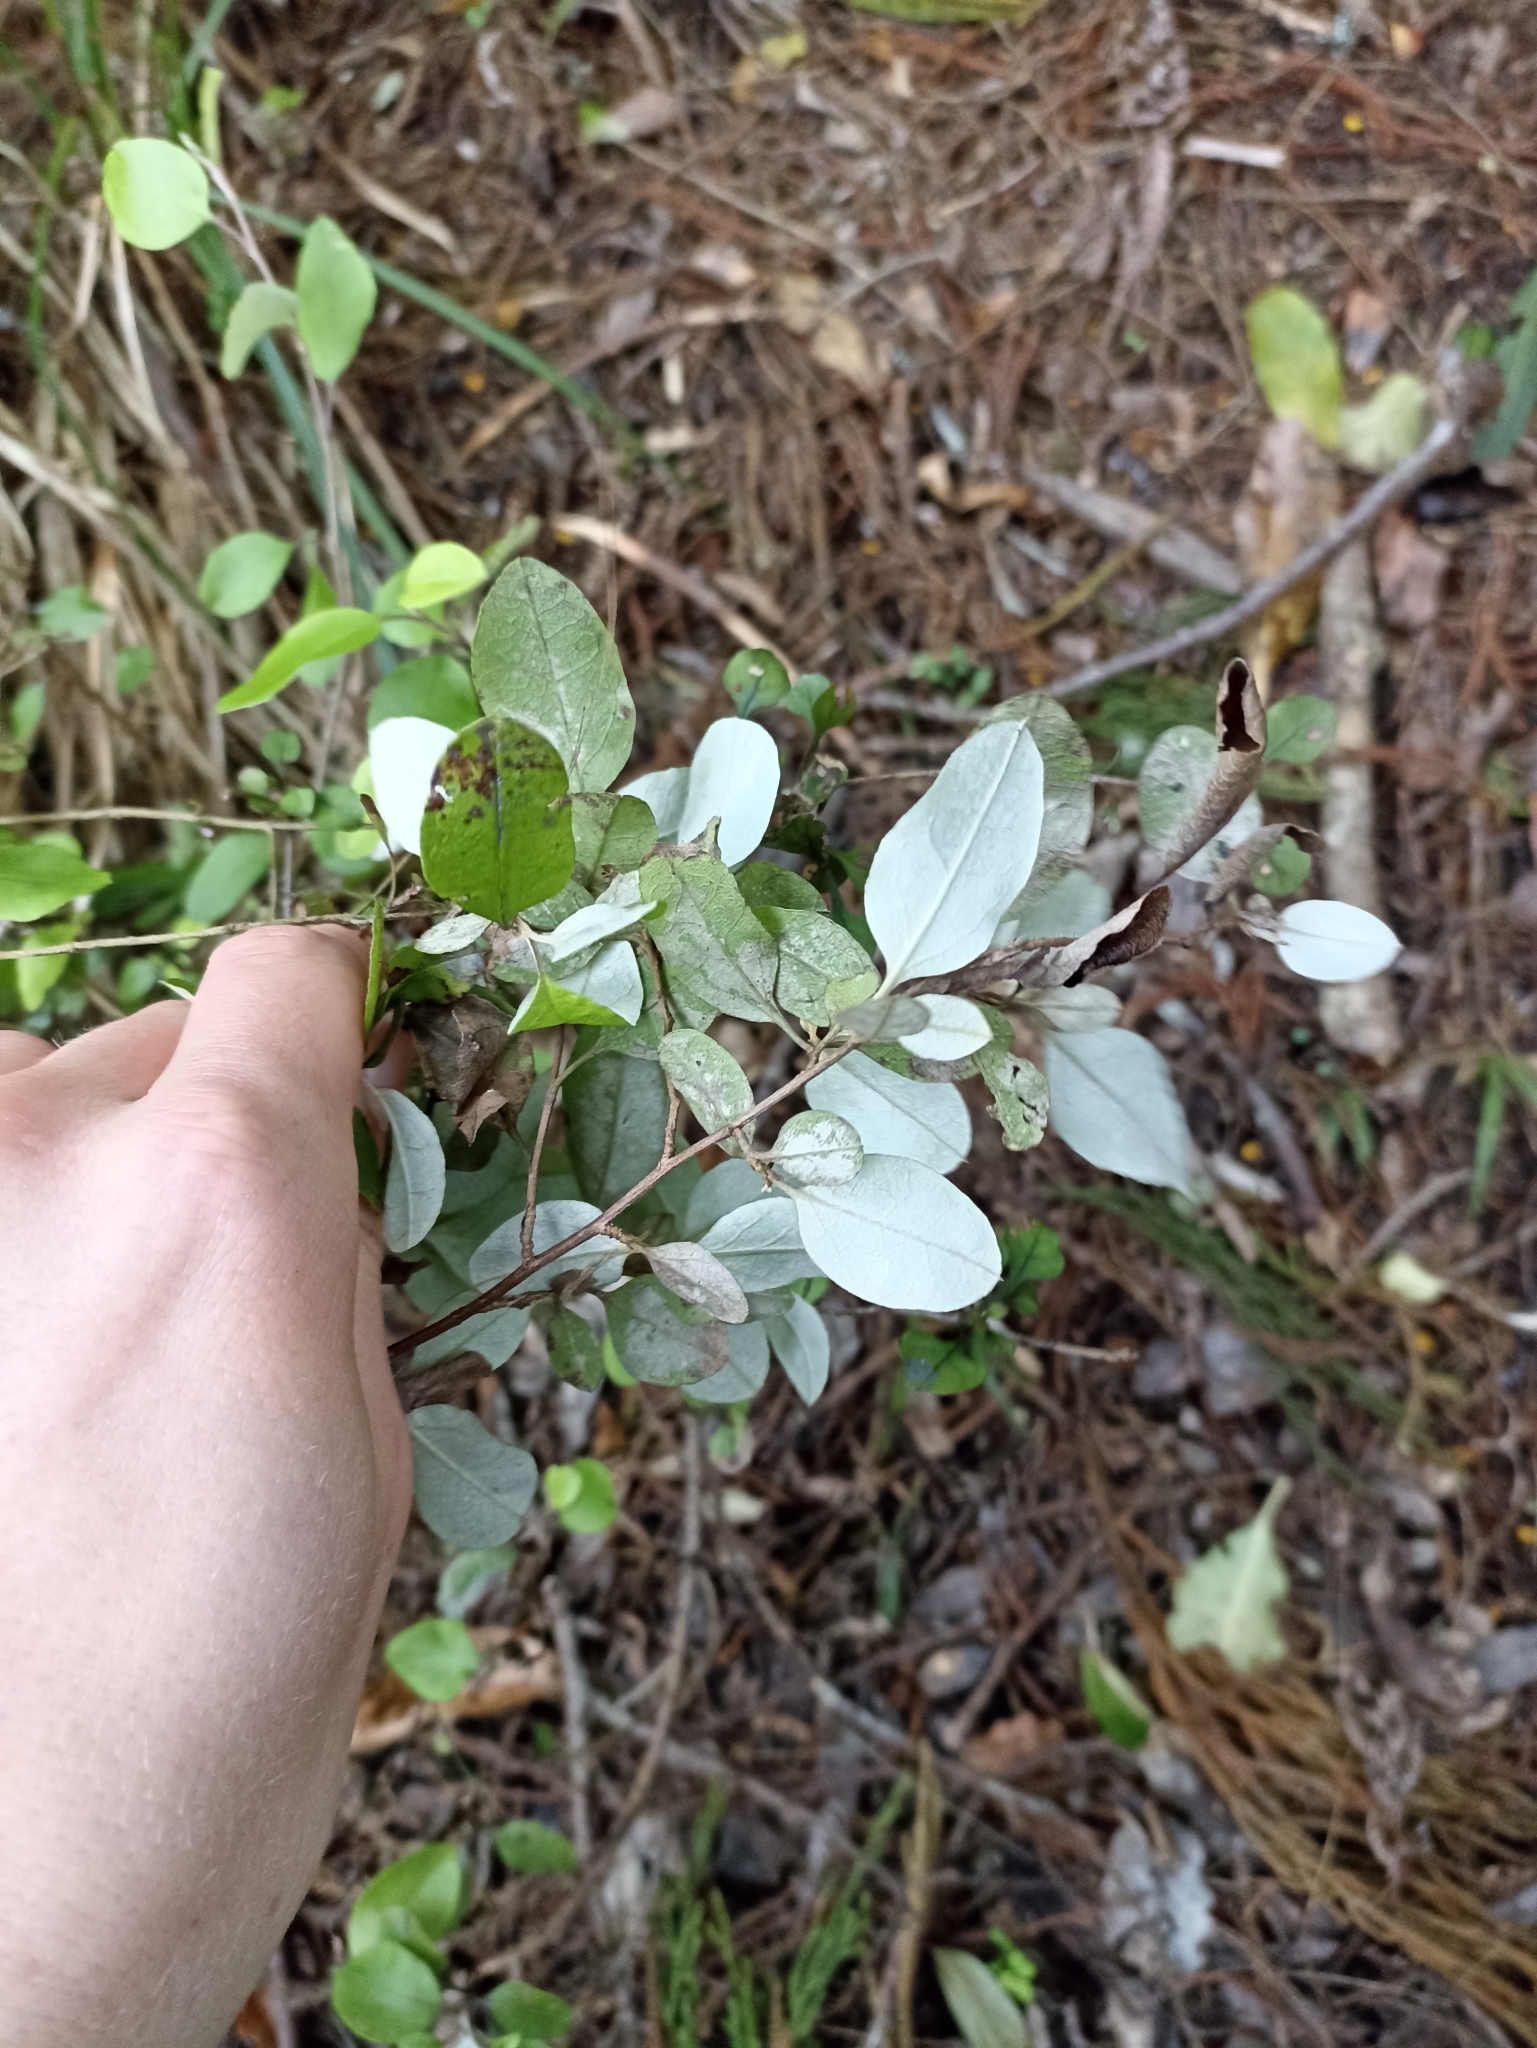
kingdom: Plantae
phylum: Tracheophyta
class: Magnoliopsida
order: Asterales
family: Asteraceae
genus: Ozothamnus
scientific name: Ozothamnus glomeratus
